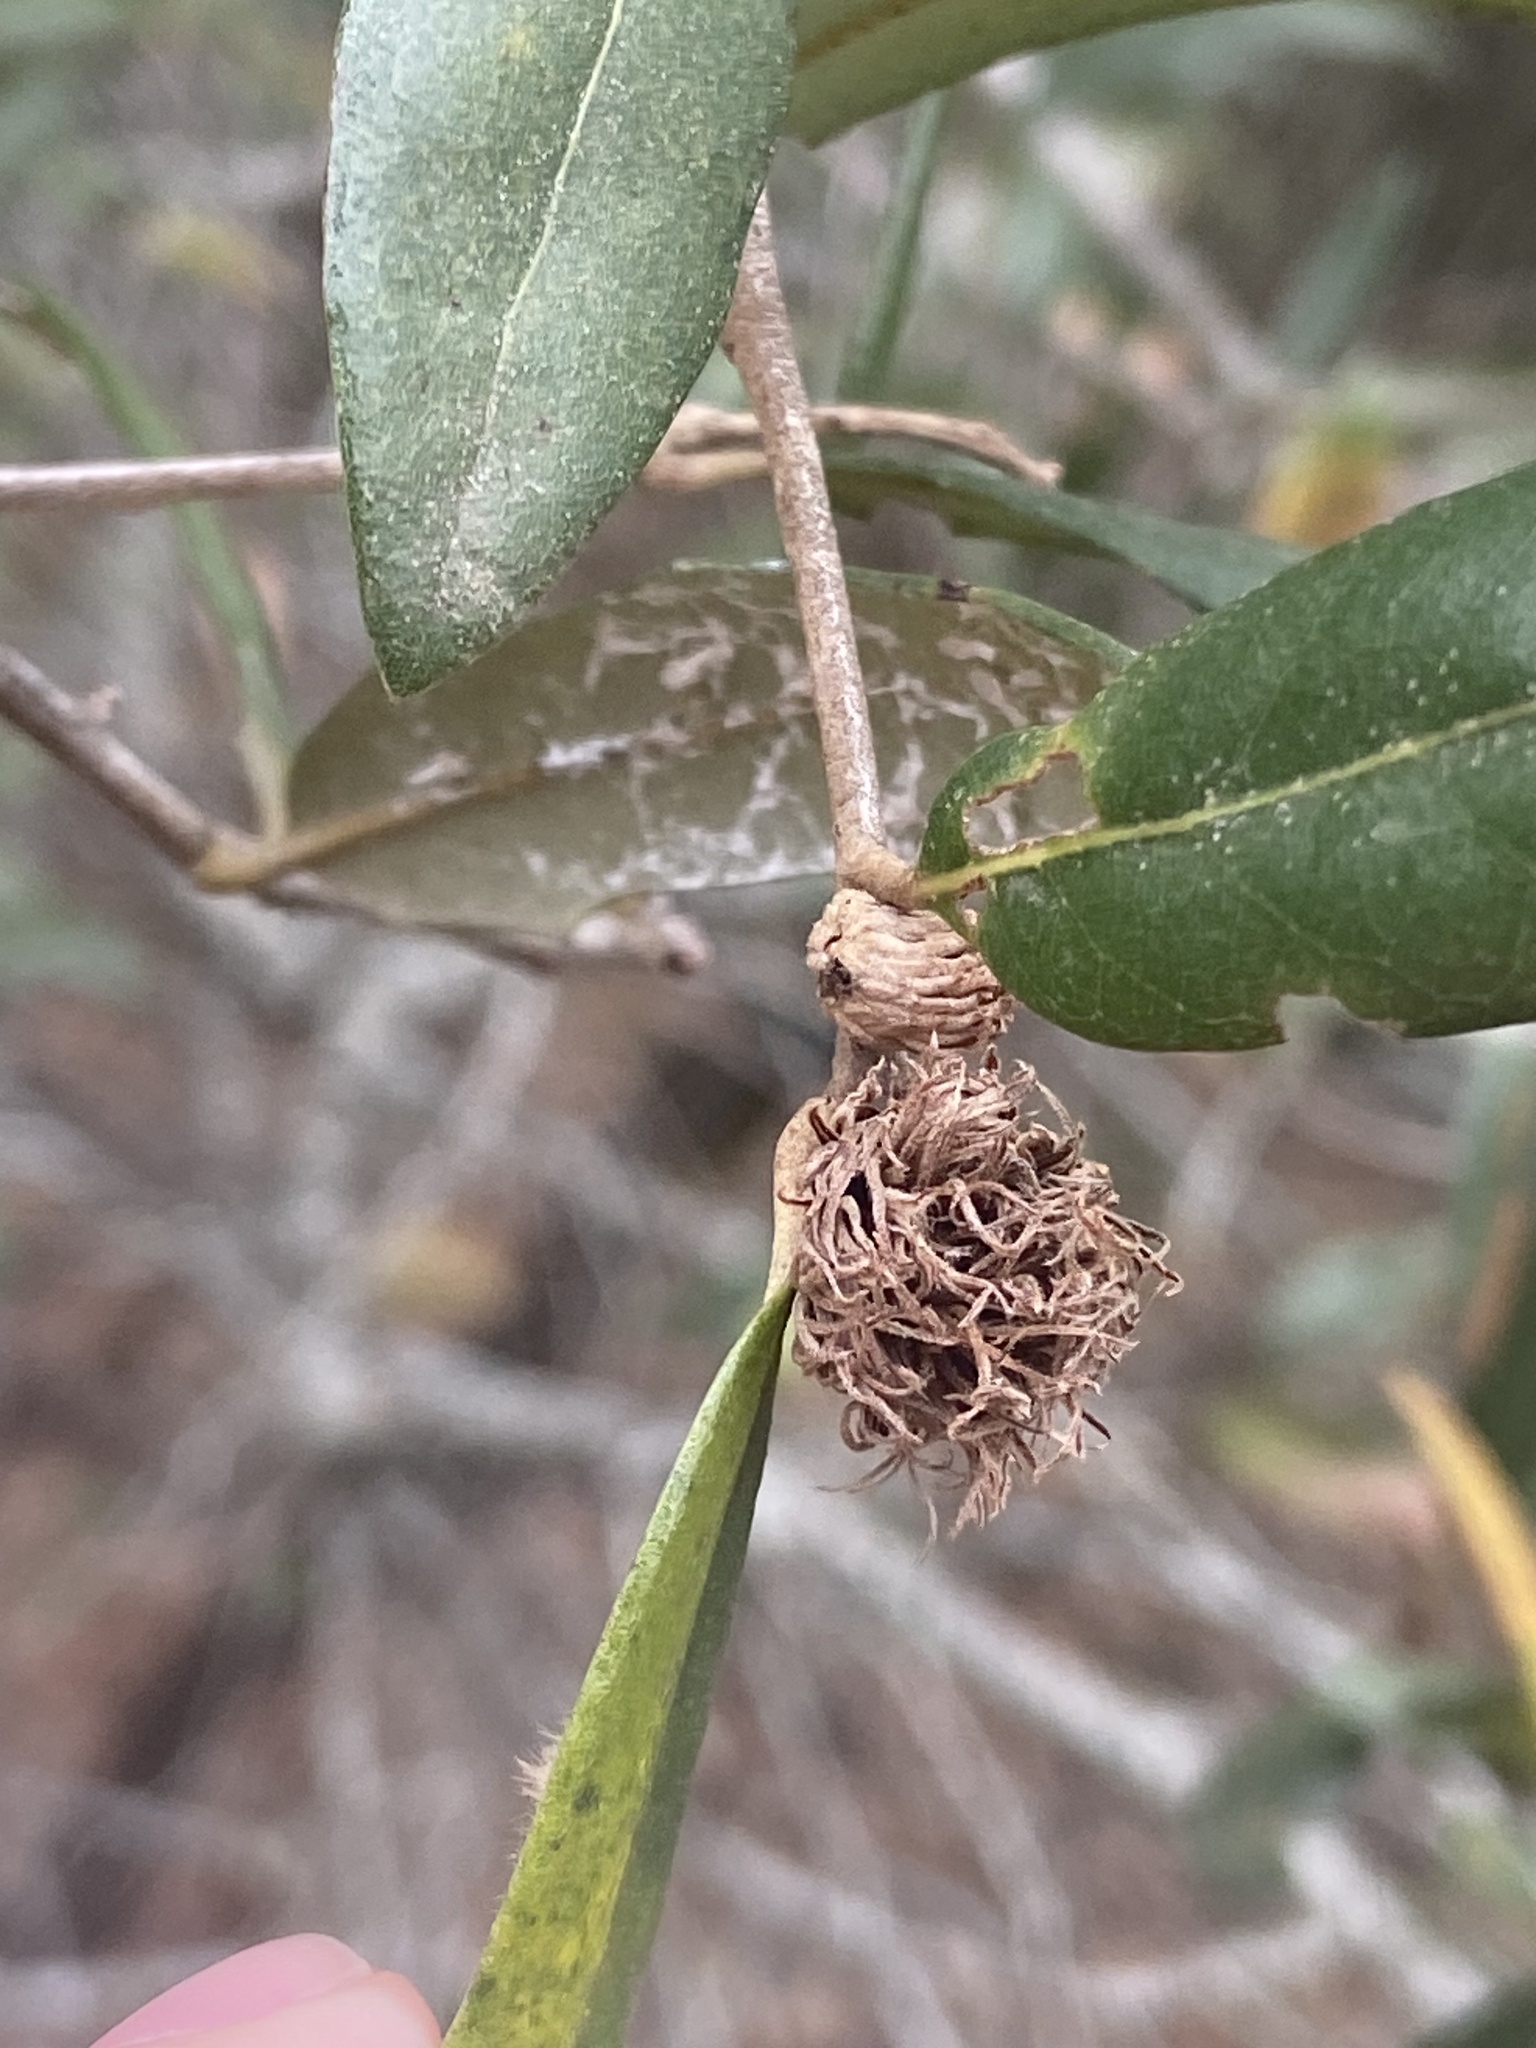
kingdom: Animalia
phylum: Arthropoda
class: Insecta
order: Hymenoptera
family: Cynipidae
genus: Andricus
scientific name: Andricus quercusfoliatus
